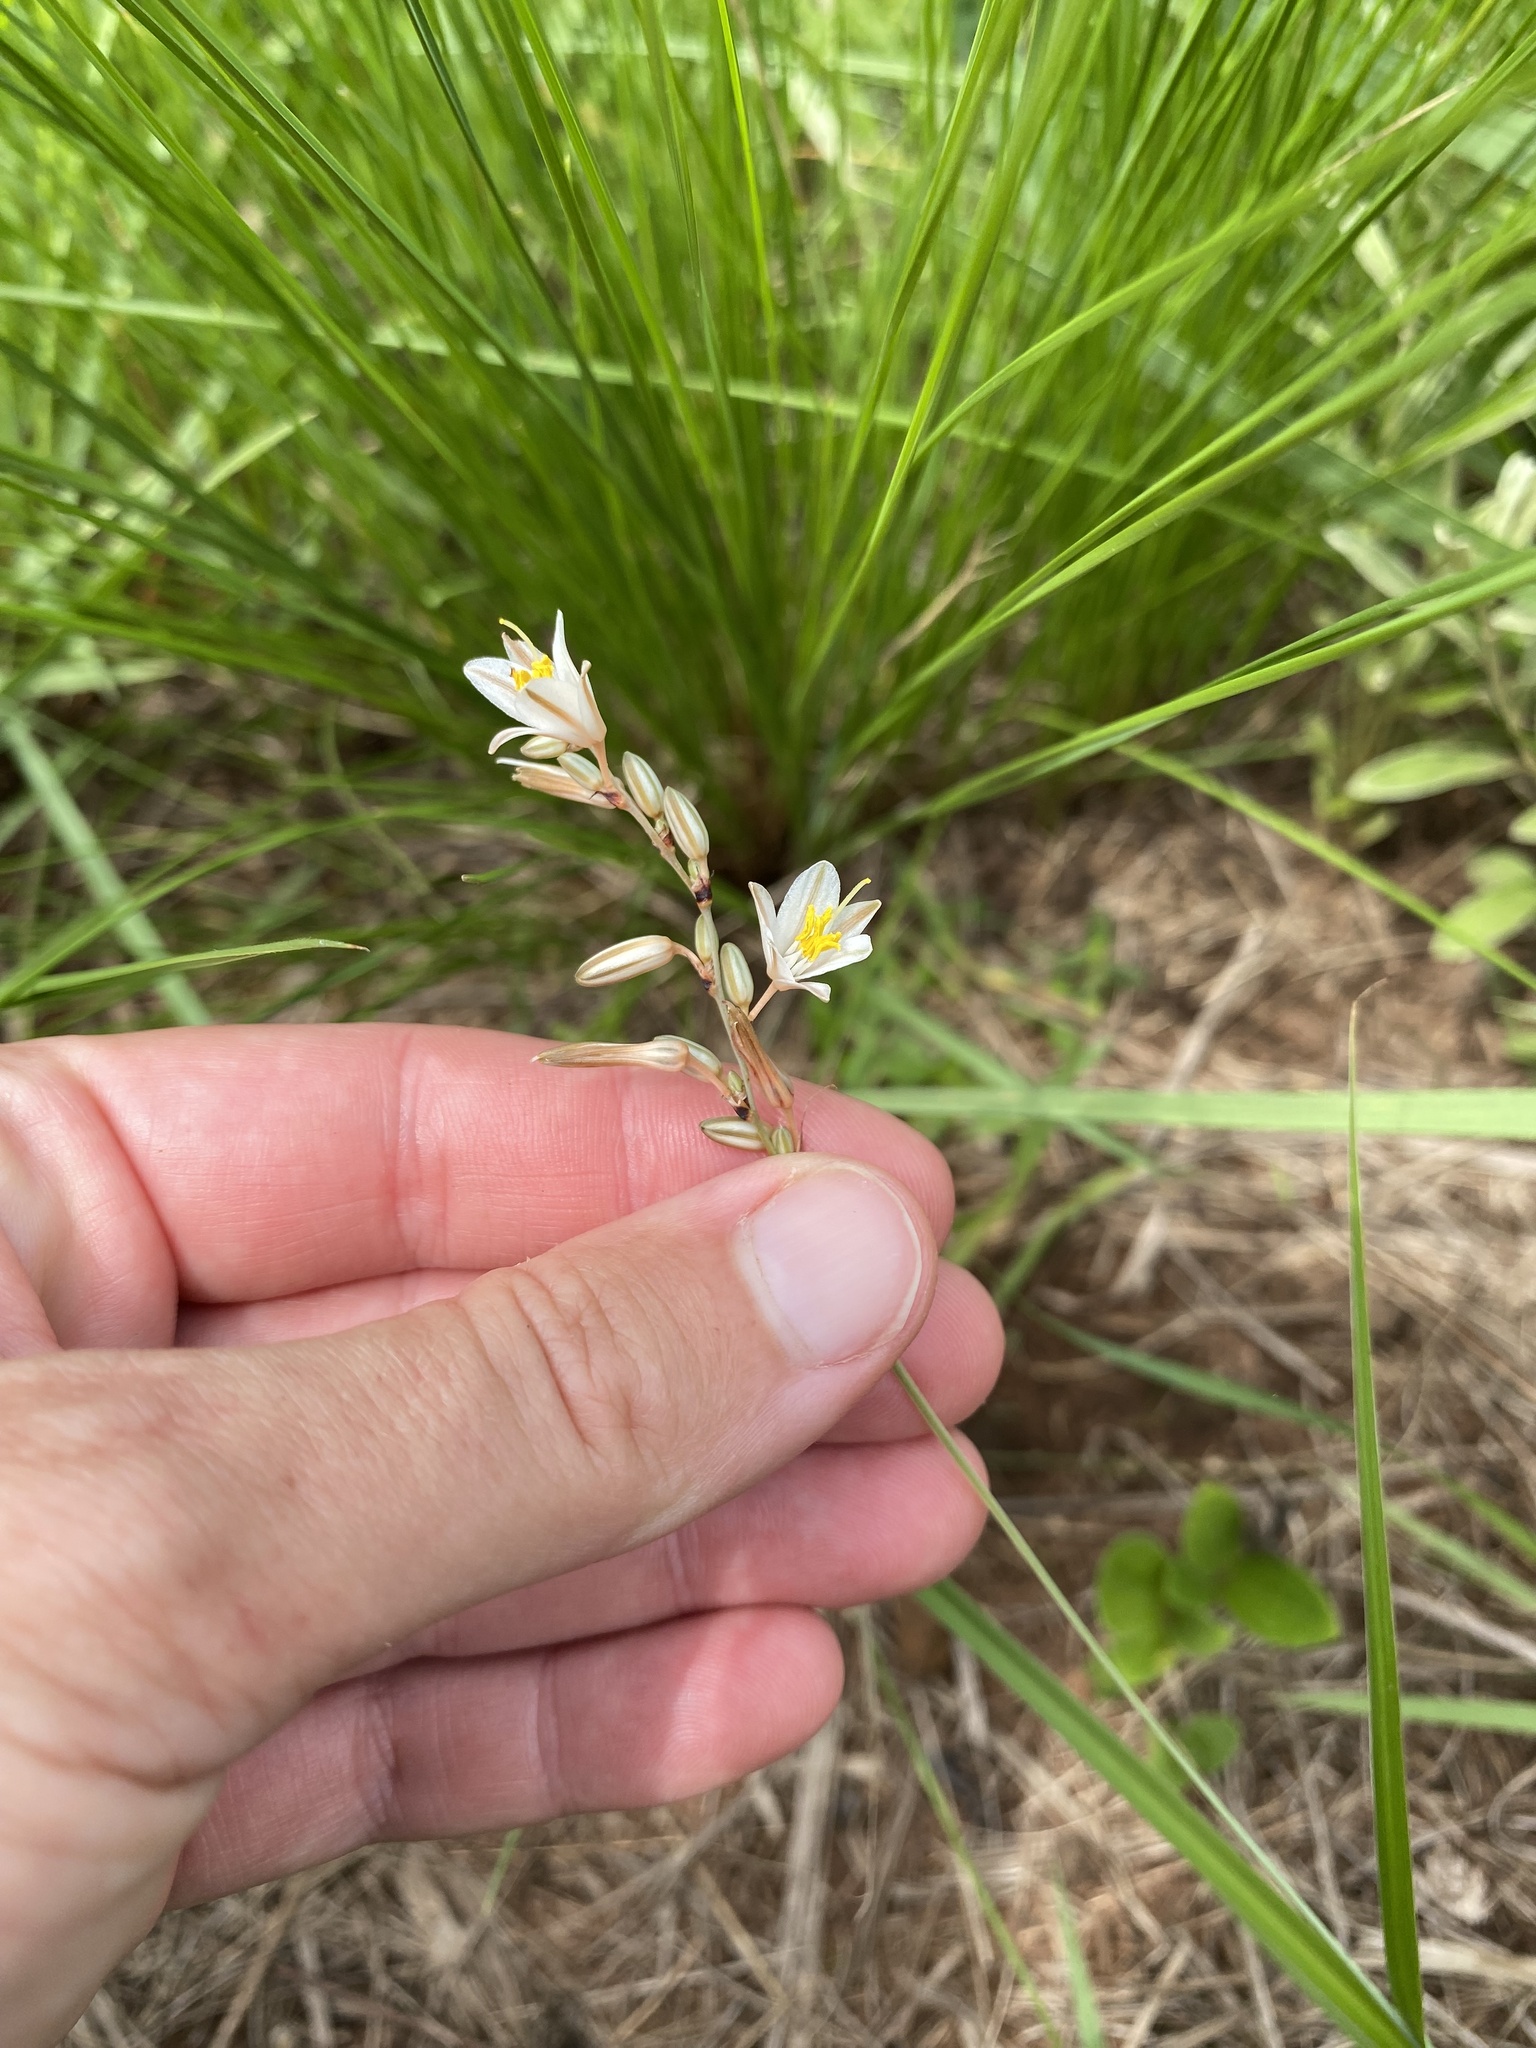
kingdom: Plantae
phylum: Tracheophyta
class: Liliopsida
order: Asparagales
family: Asparagaceae
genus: Chlorophytum
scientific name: Chlorophytum cooperi
